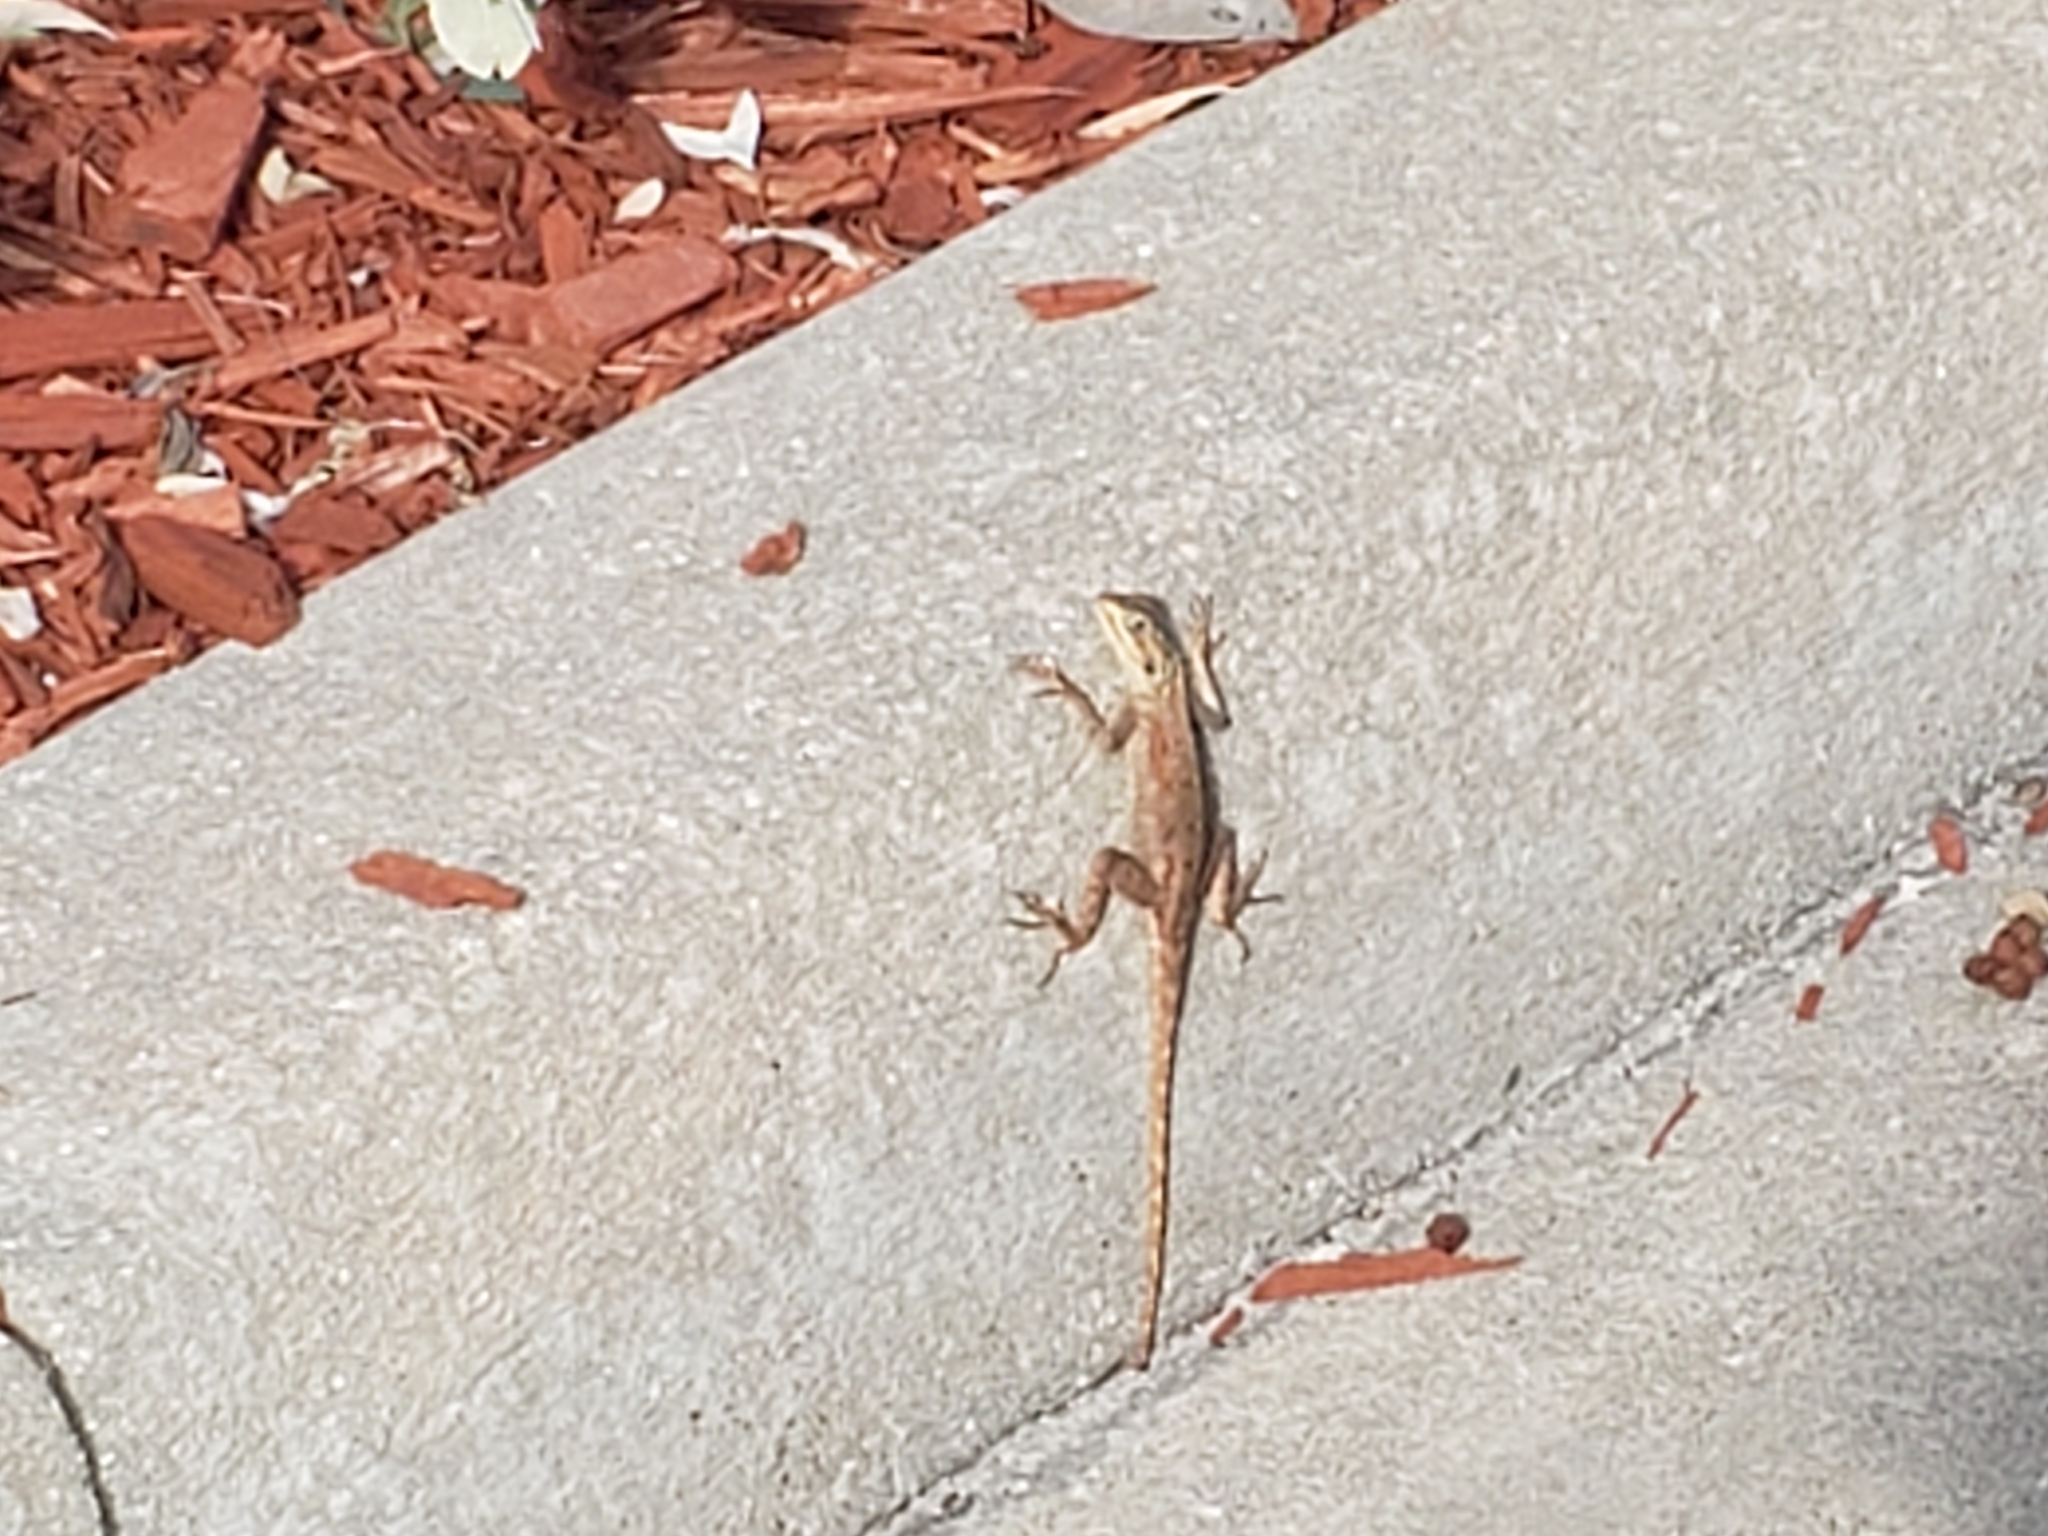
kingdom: Animalia
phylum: Chordata
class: Squamata
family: Agamidae
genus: Agama
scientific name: Agama picticauda
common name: Red-headed agama
